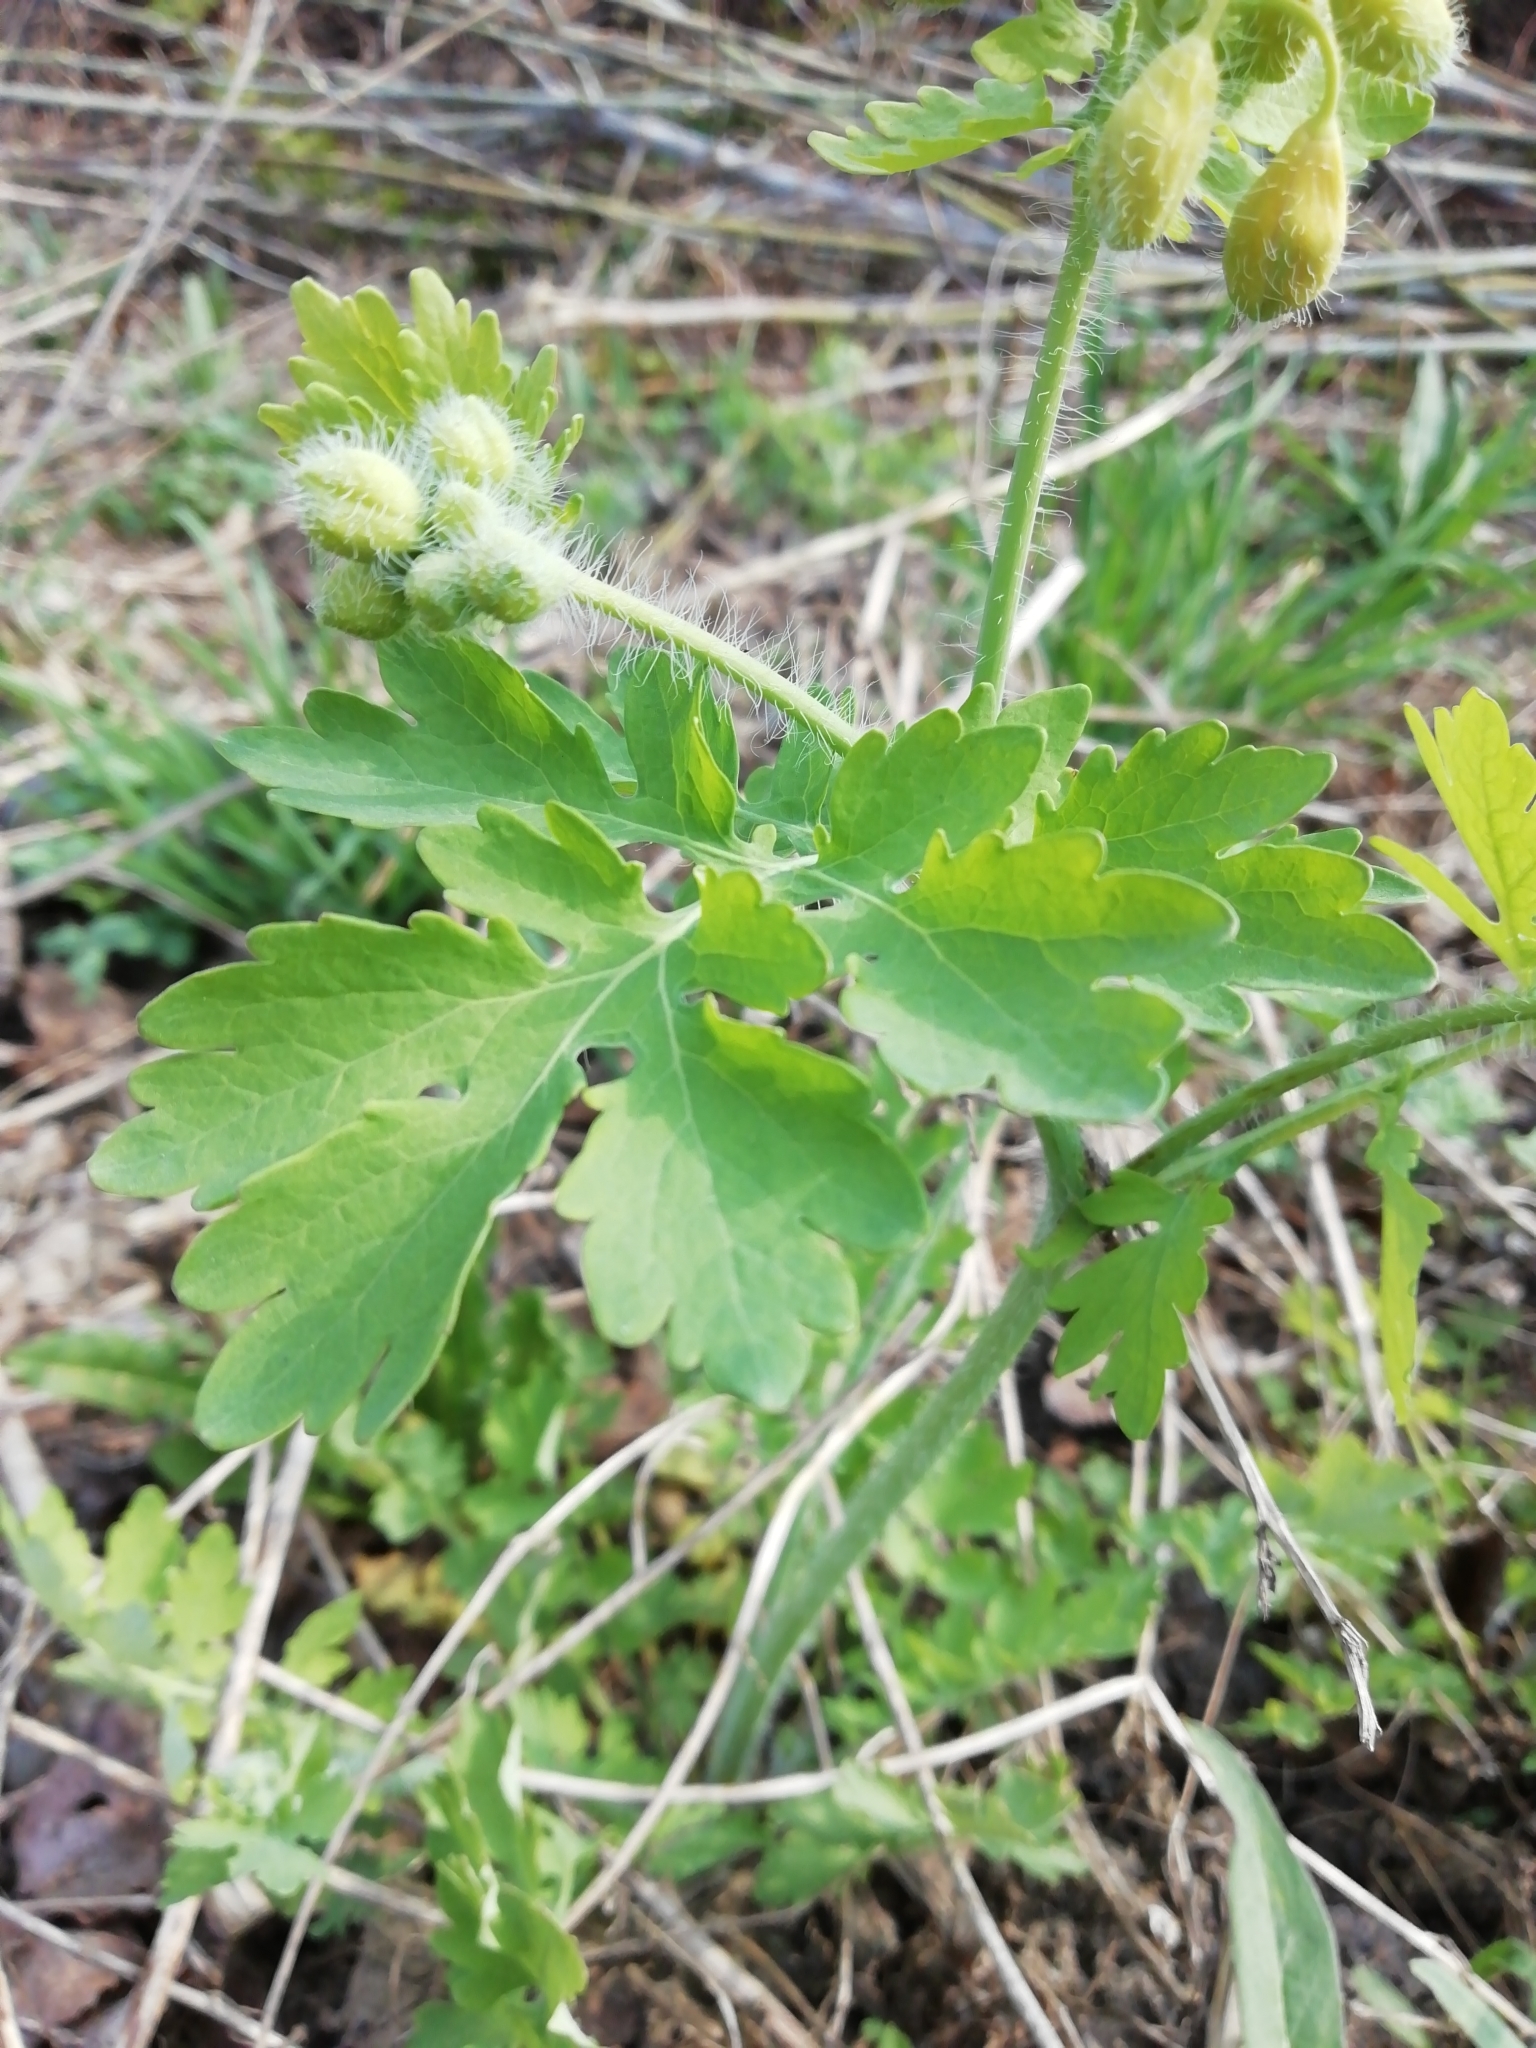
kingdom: Plantae
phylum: Tracheophyta
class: Magnoliopsida
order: Ranunculales
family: Papaveraceae
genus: Chelidonium
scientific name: Chelidonium majus
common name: Greater celandine
